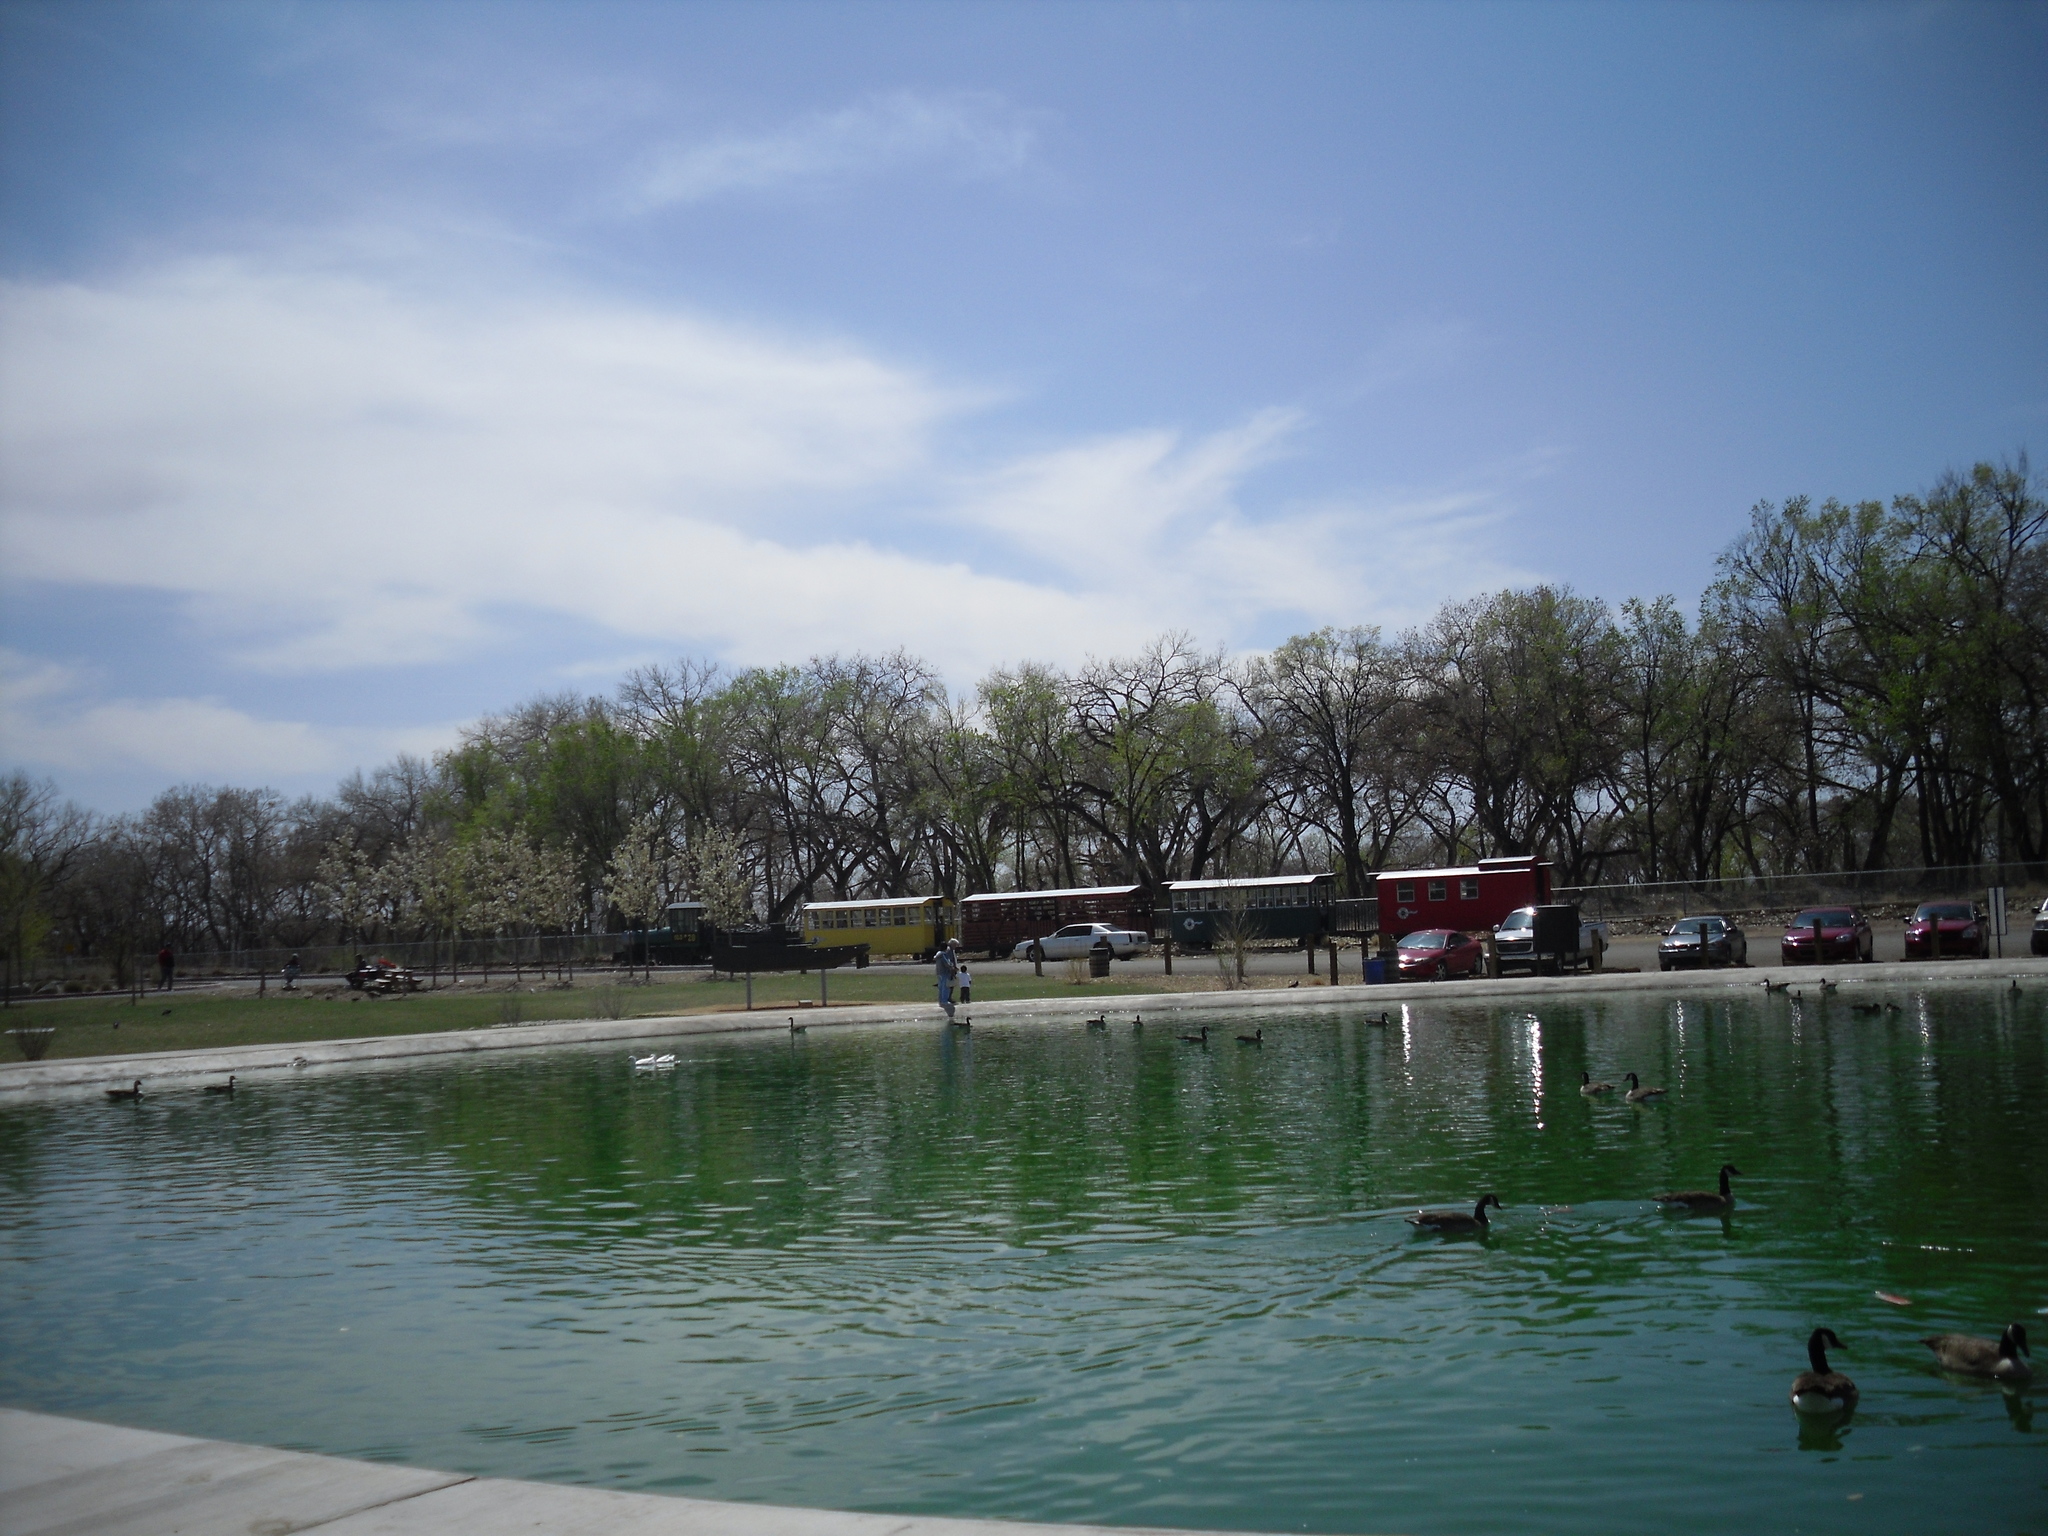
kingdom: Animalia
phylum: Chordata
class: Aves
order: Anseriformes
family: Anatidae
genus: Branta
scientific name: Branta canadensis
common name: Canada goose
